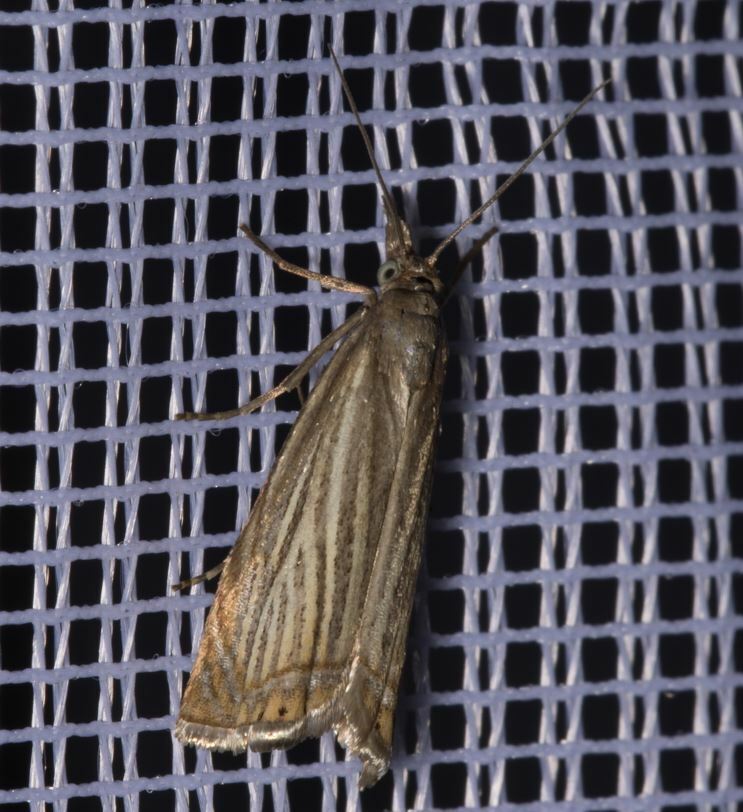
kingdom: Animalia
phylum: Arthropoda
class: Insecta
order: Lepidoptera
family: Crambidae
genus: Chrysoteuchia
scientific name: Chrysoteuchia culmella
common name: Garden grass-veneer
